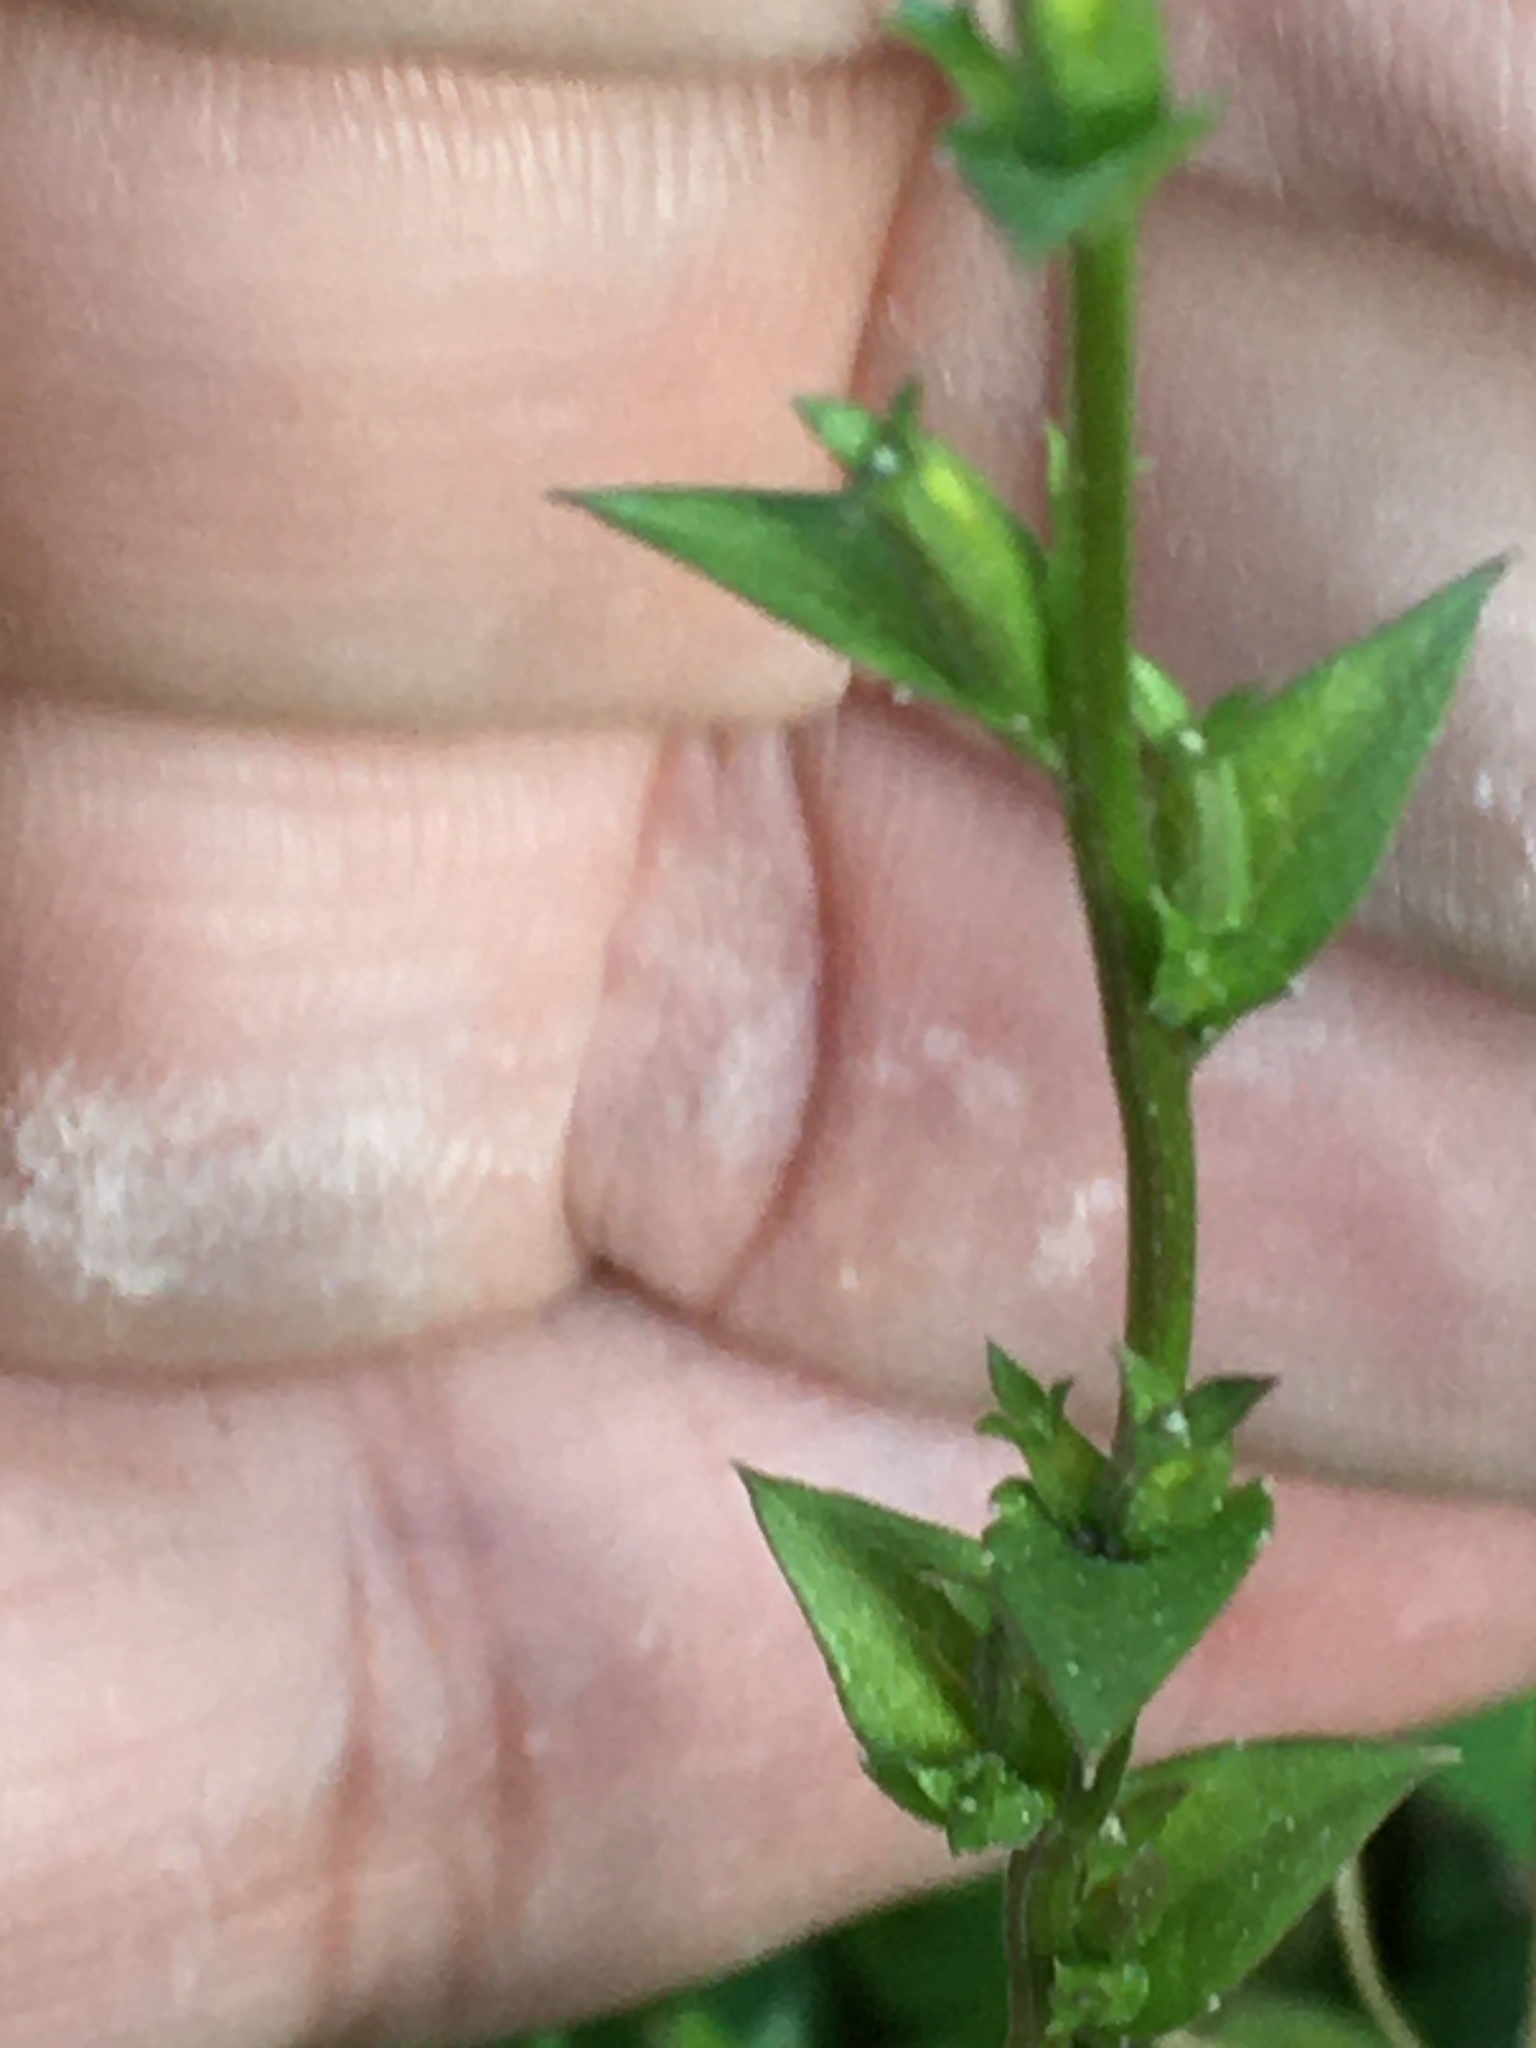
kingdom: Plantae
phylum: Tracheophyta
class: Magnoliopsida
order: Asterales
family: Campanulaceae
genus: Triodanis
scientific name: Triodanis perfoliata
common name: Clasping venus' looking-glass
